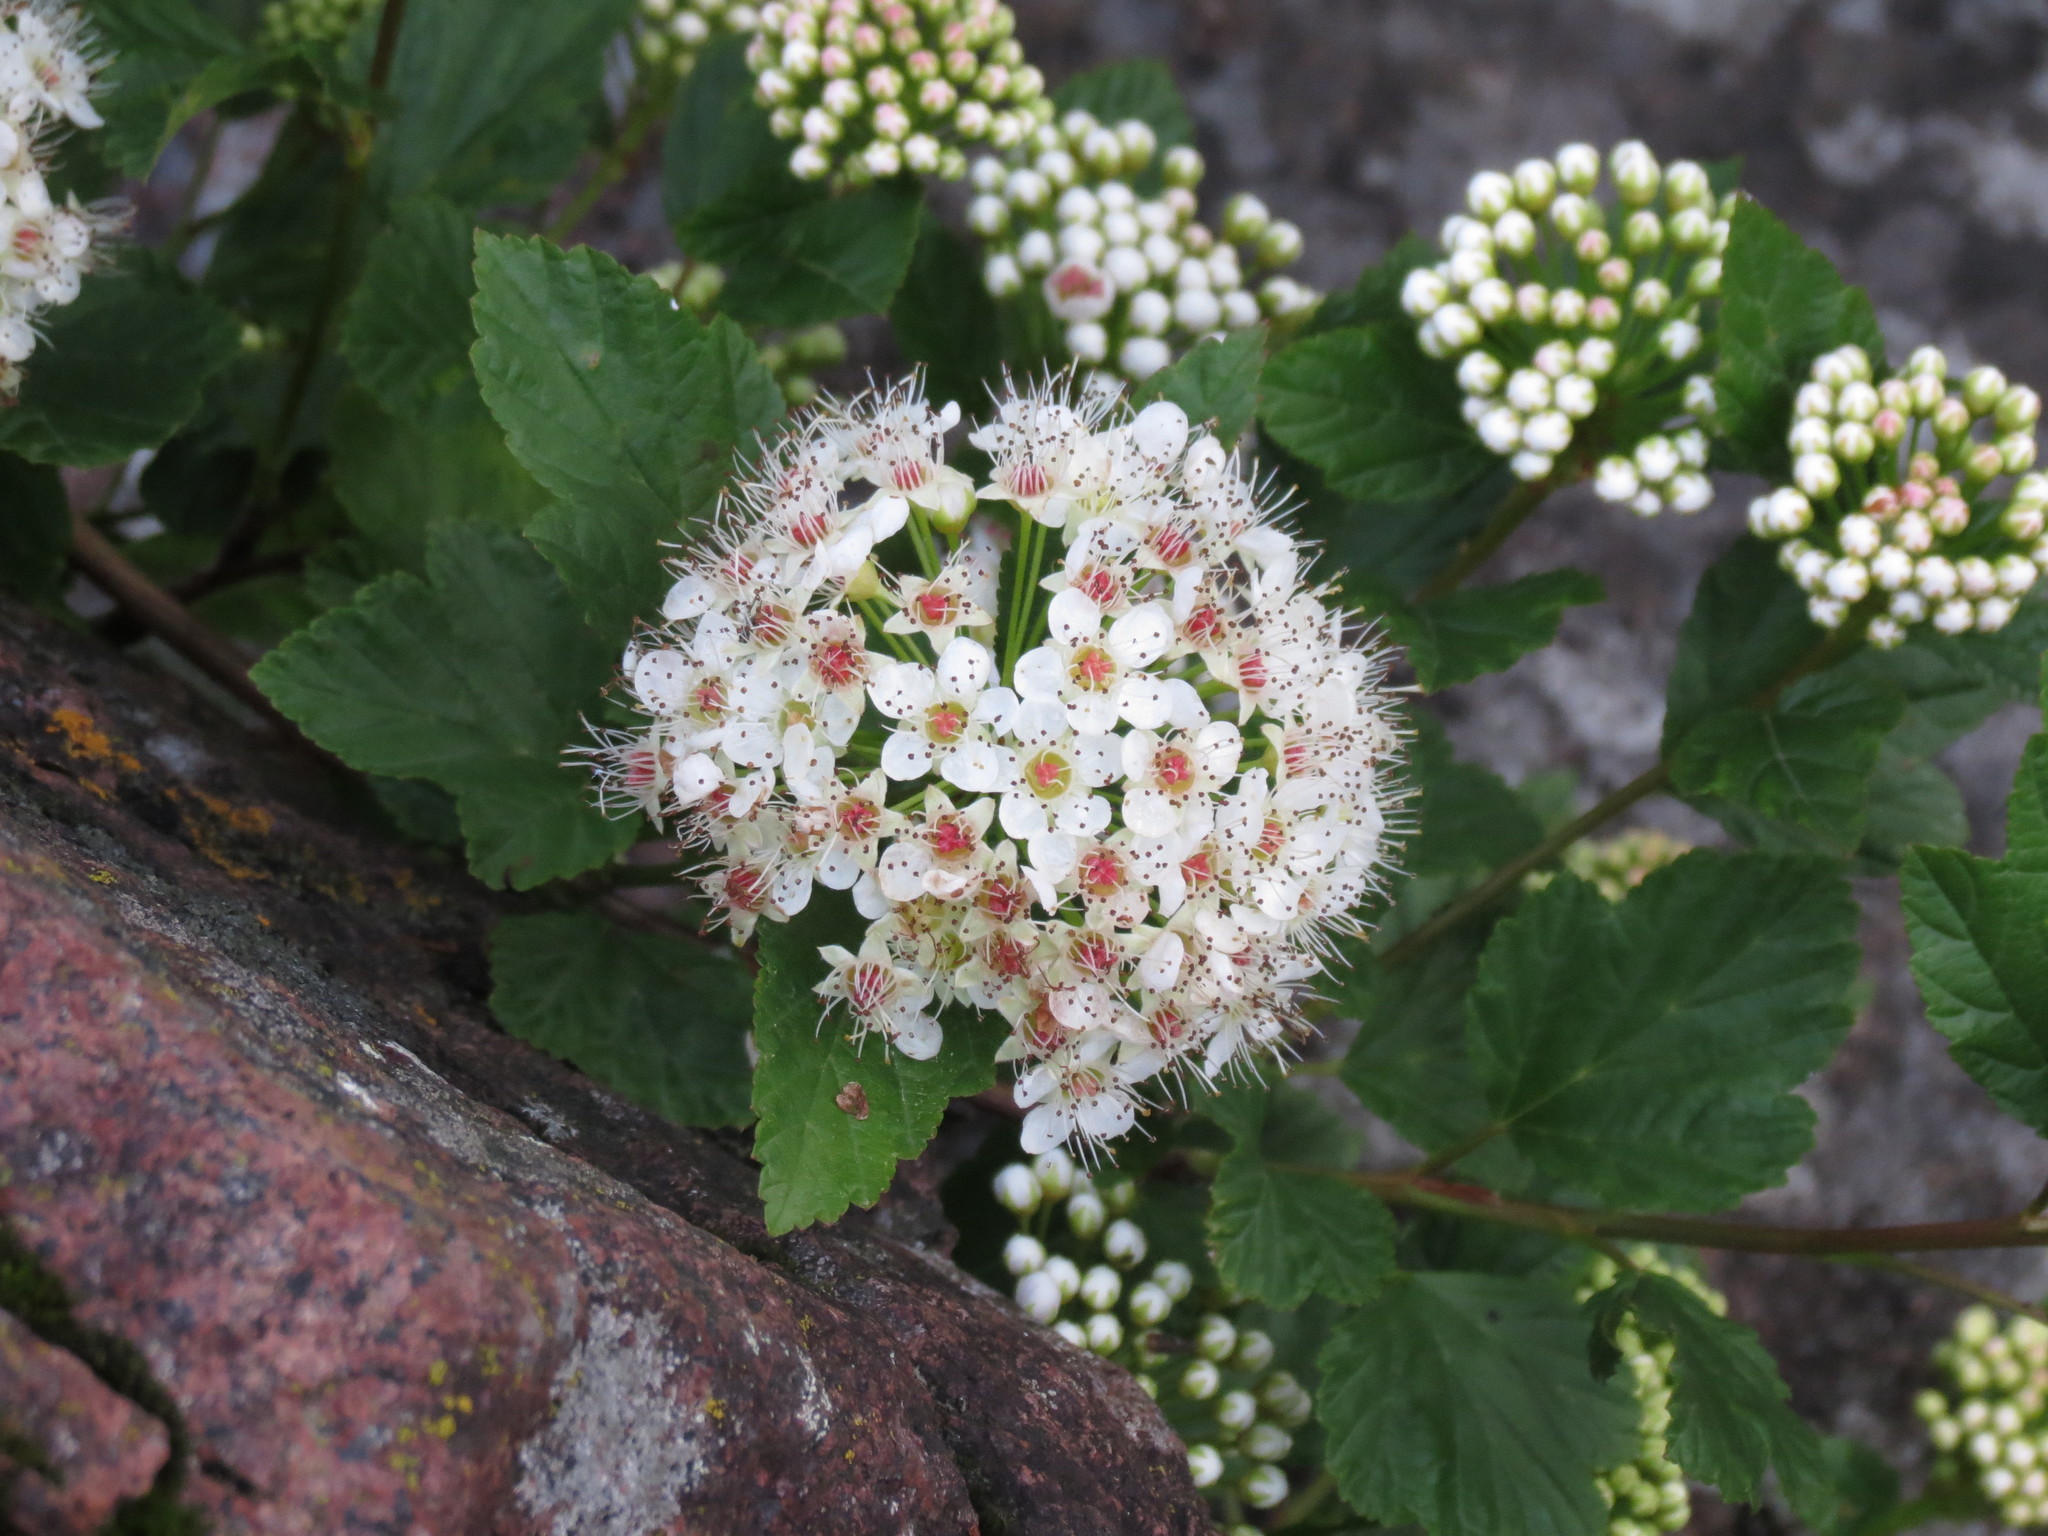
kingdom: Plantae
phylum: Tracheophyta
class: Magnoliopsida
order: Rosales
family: Rosaceae
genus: Physocarpus
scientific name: Physocarpus opulifolius
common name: Ninebark
